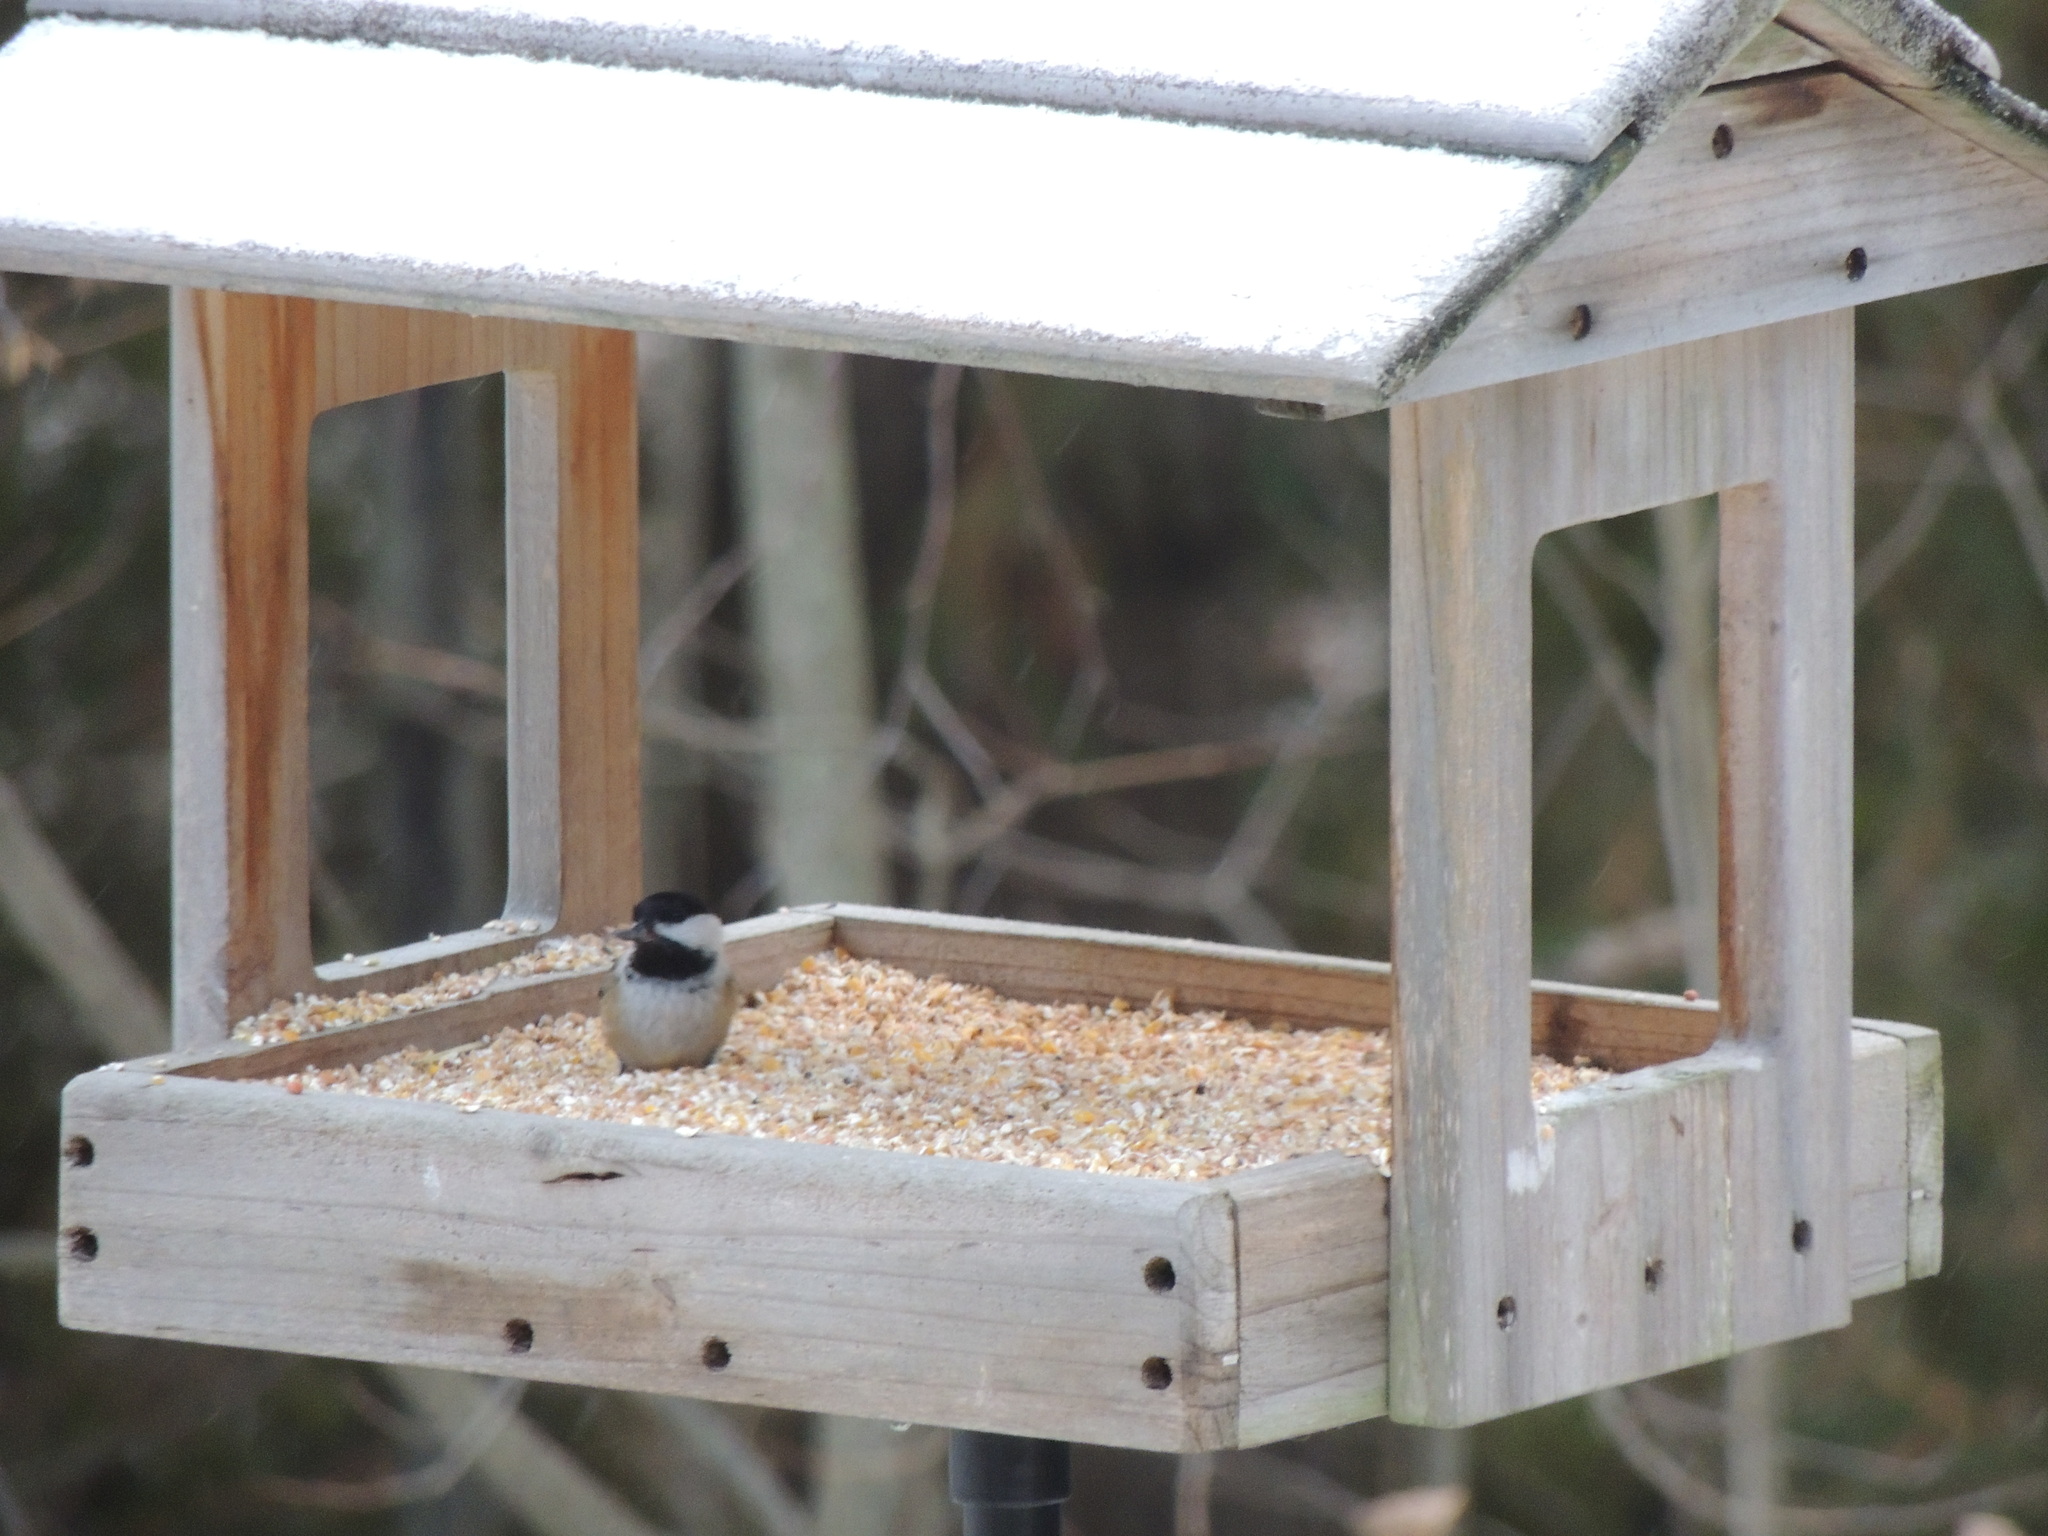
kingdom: Animalia
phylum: Chordata
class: Aves
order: Passeriformes
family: Paridae
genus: Poecile
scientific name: Poecile atricapillus
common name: Black-capped chickadee
